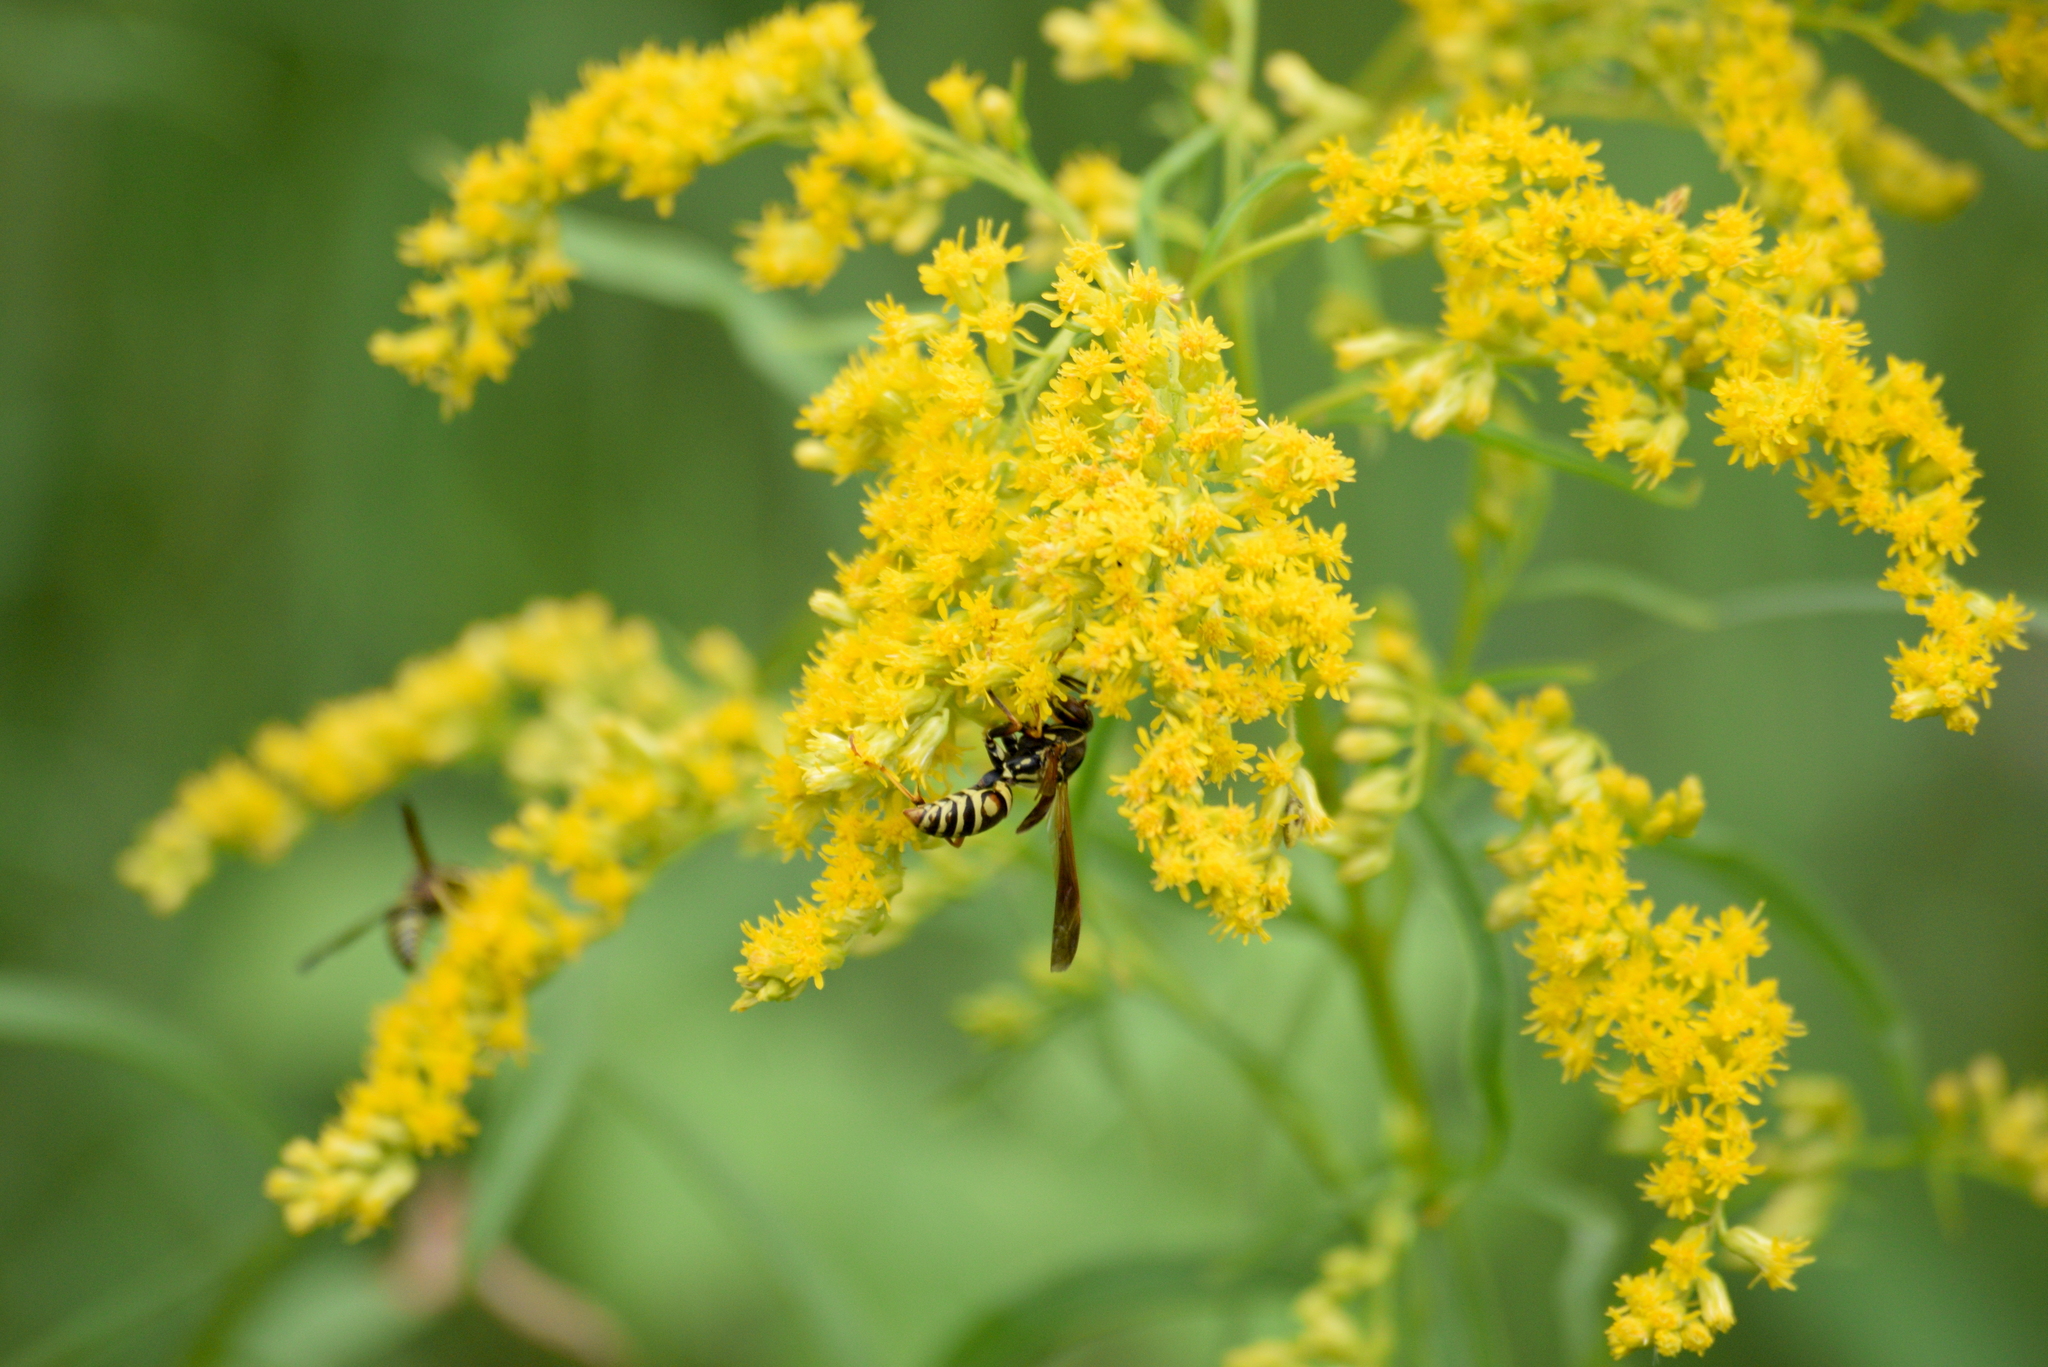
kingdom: Animalia
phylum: Arthropoda
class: Insecta
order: Hymenoptera
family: Eumenidae
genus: Polistes
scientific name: Polistes fuscatus
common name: Dark paper wasp
